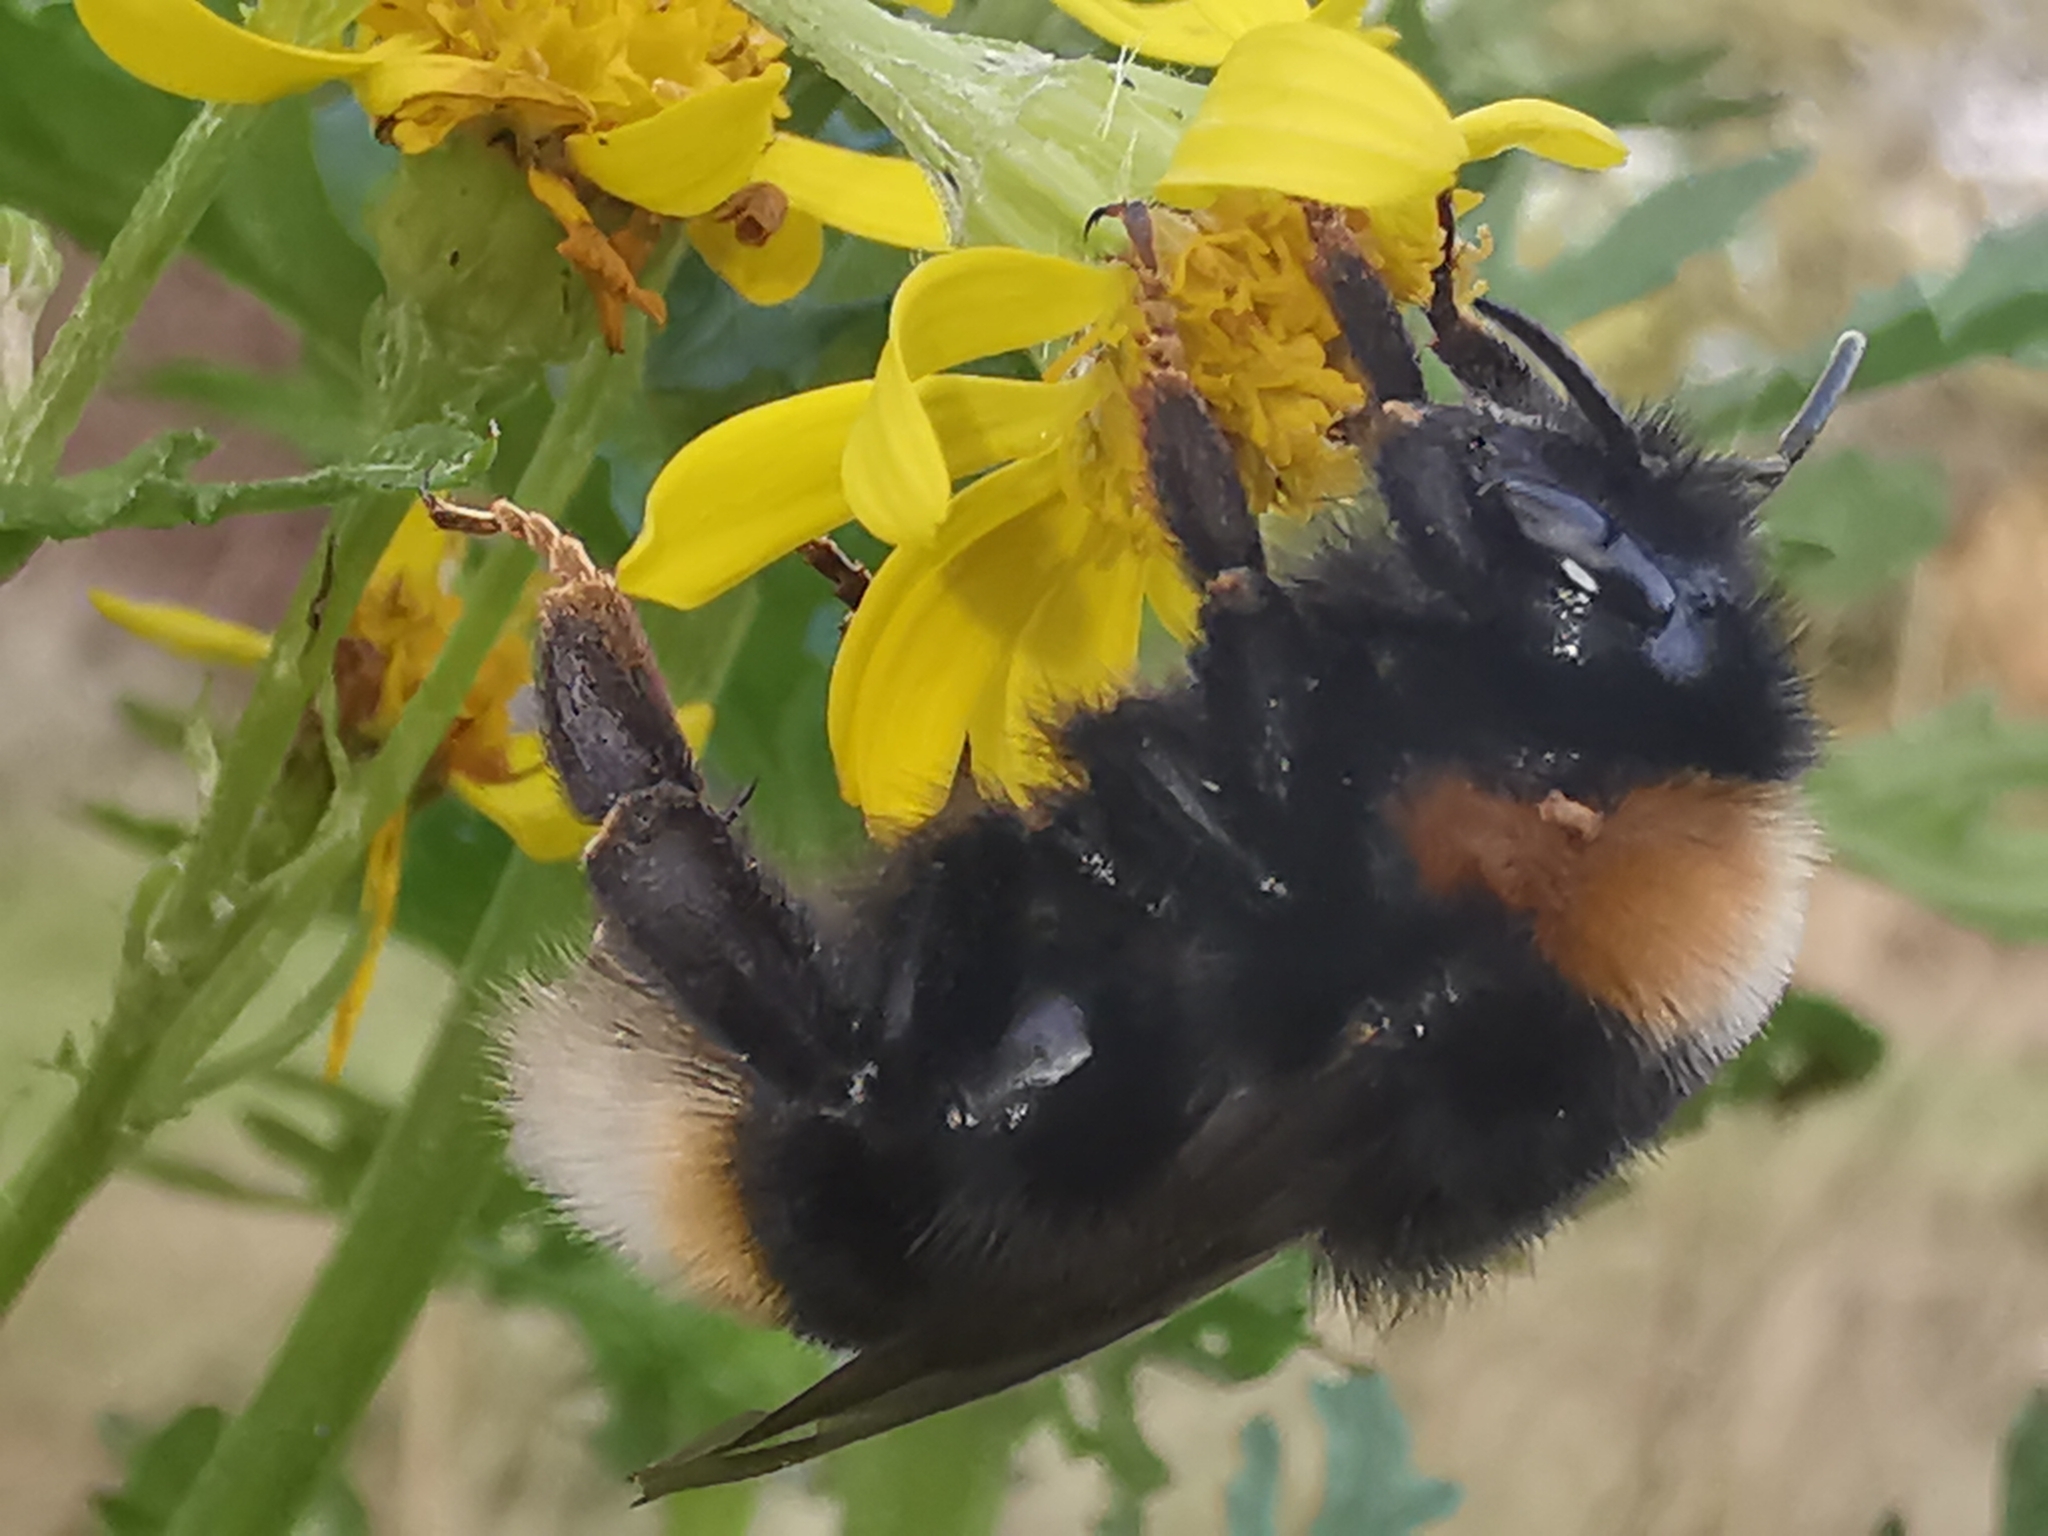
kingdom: Animalia
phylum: Arthropoda
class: Insecta
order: Hymenoptera
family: Apidae
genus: Bombus
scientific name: Bombus vestalis
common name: Vestal cuckoo bee
